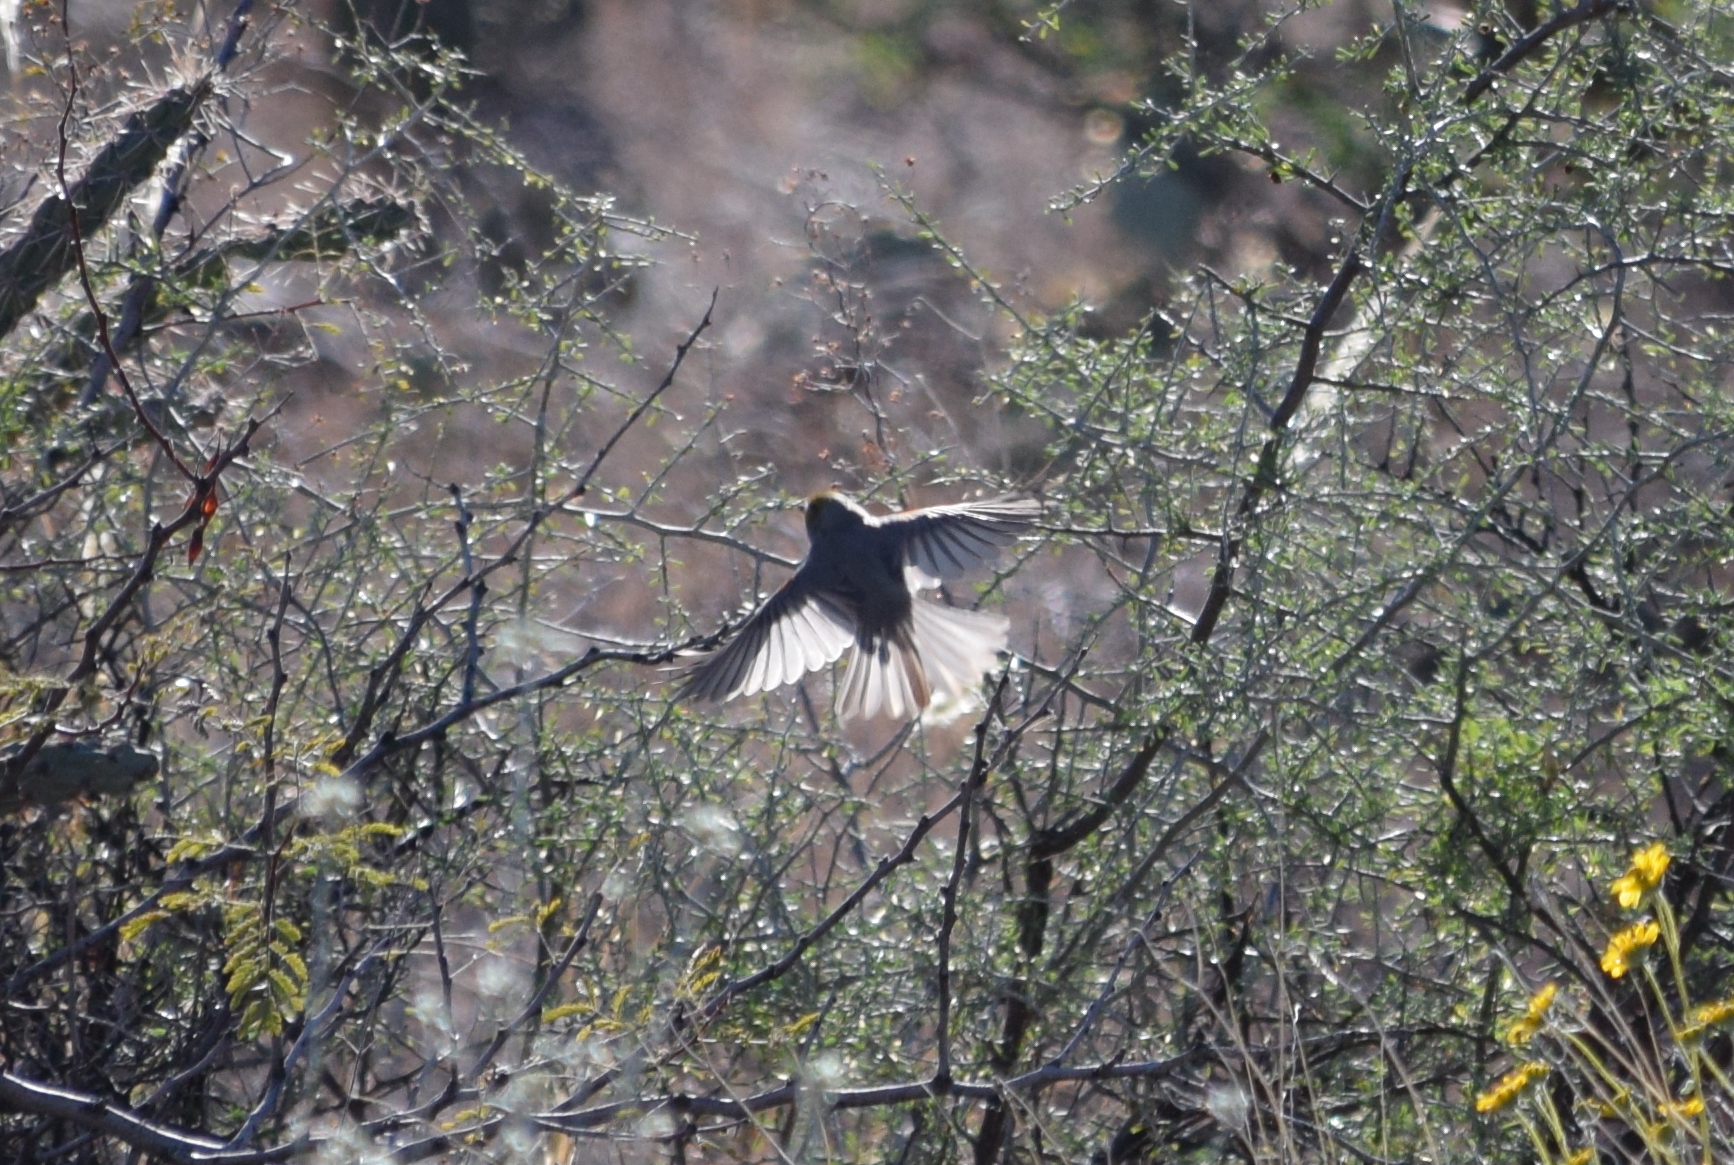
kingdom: Animalia
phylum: Chordata
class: Aves
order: Passeriformes
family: Remizidae
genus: Auriparus
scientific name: Auriparus flaviceps
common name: Verdin
